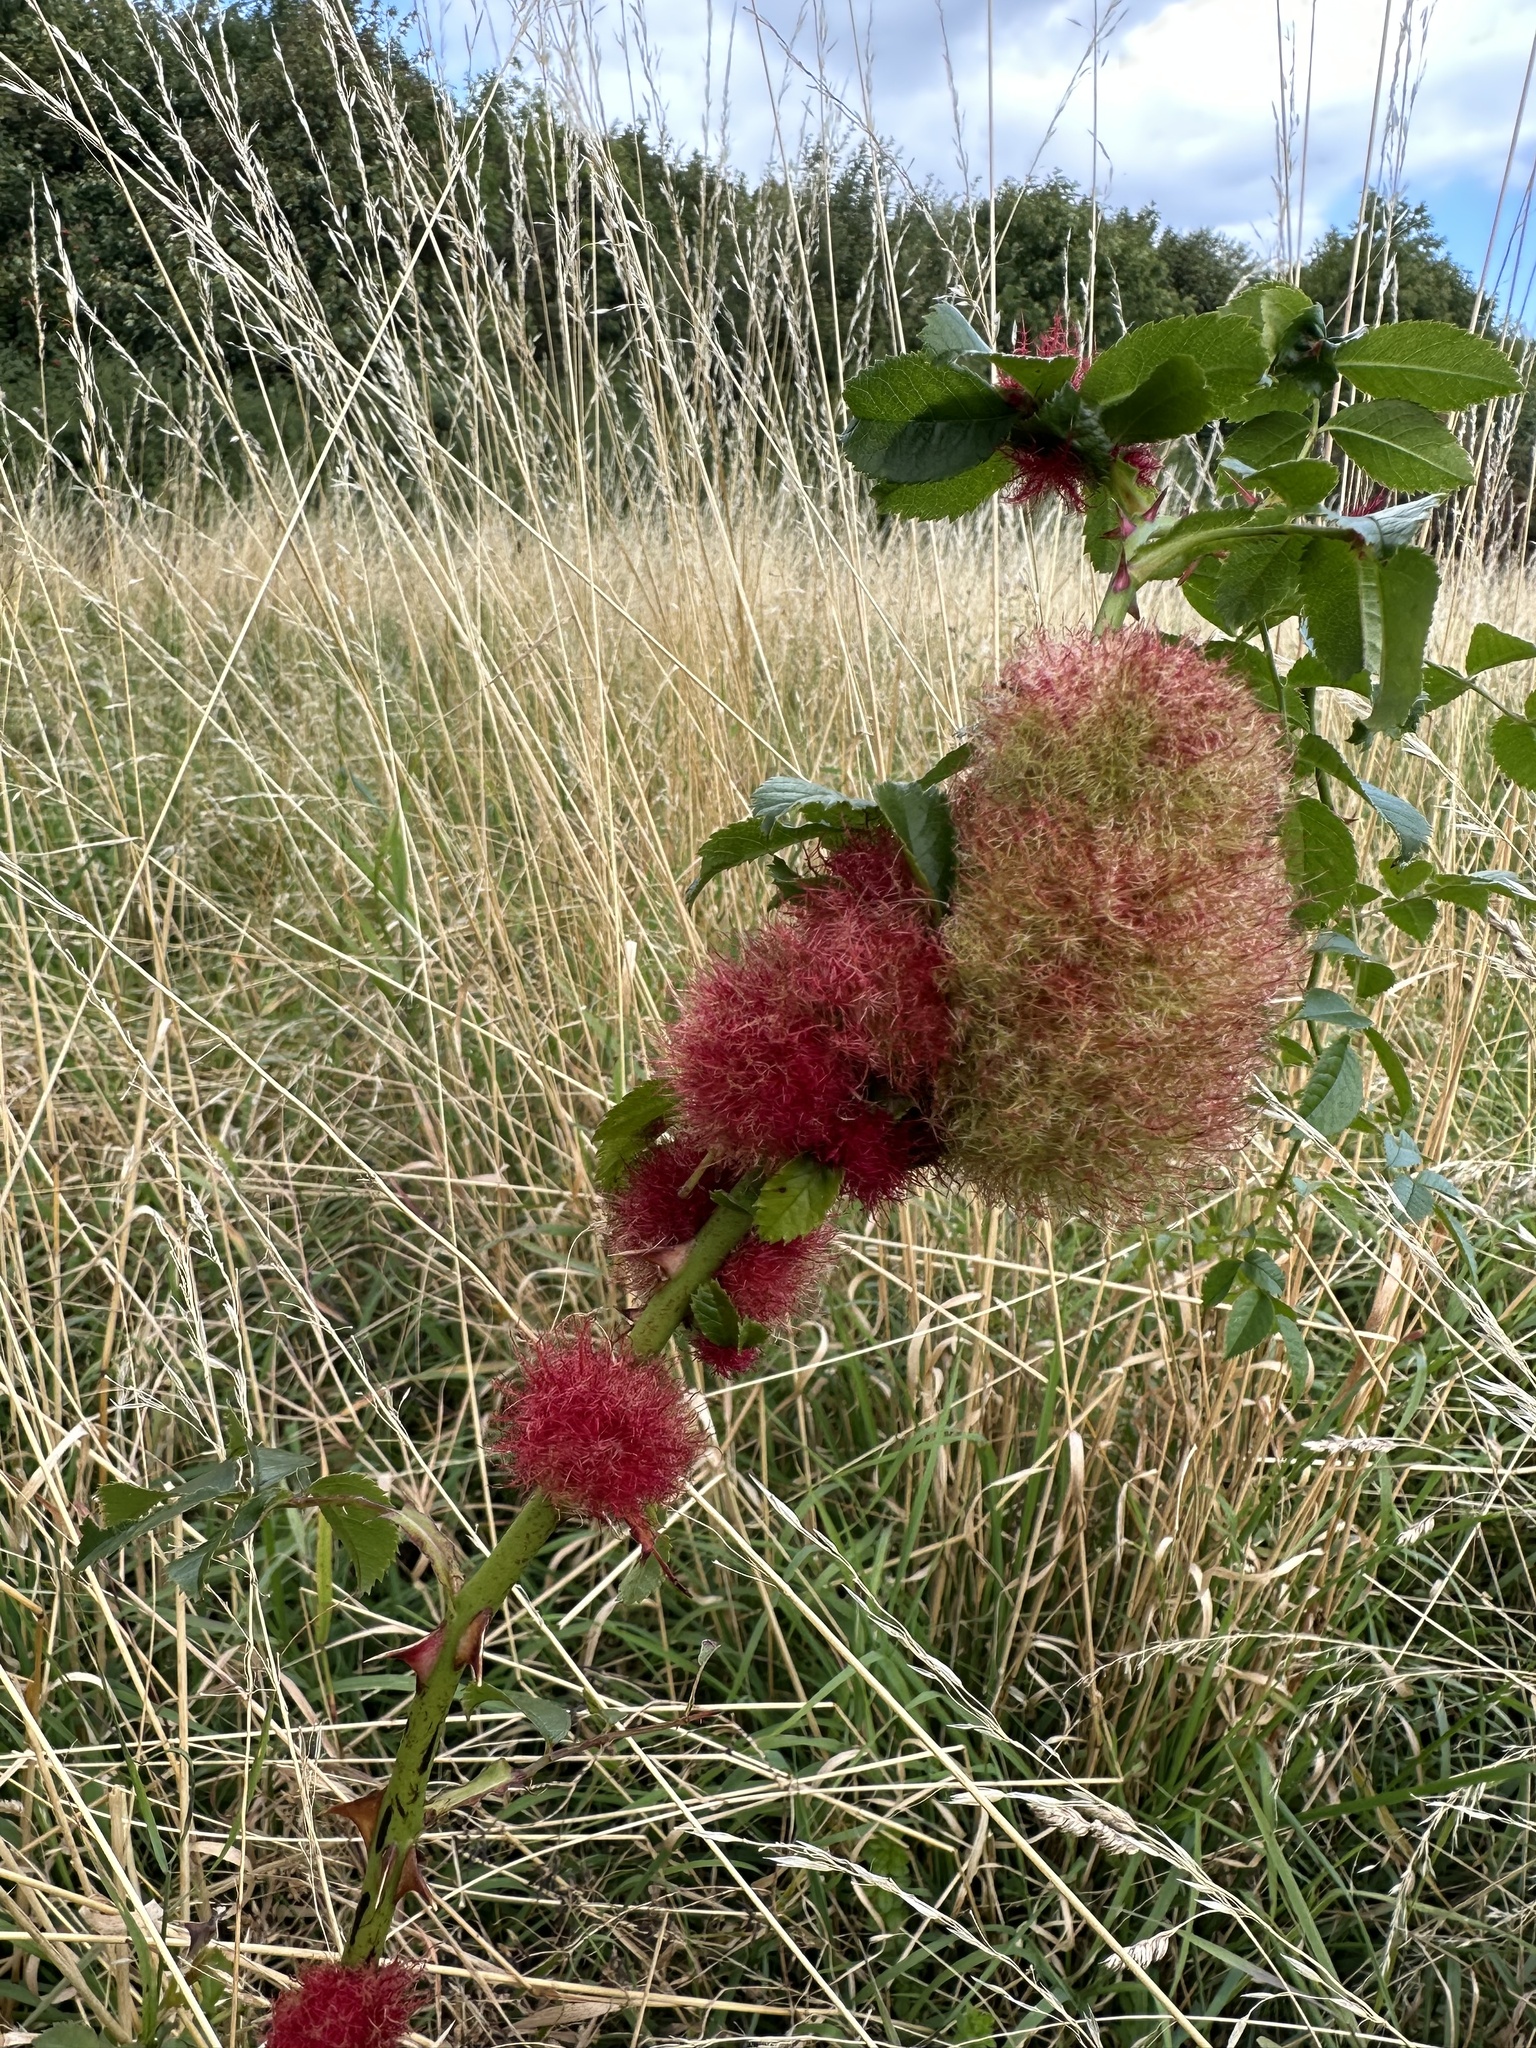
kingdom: Animalia
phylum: Arthropoda
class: Insecta
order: Hymenoptera
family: Cynipidae
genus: Diplolepis
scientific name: Diplolepis rosae
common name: Bedeguar gall
